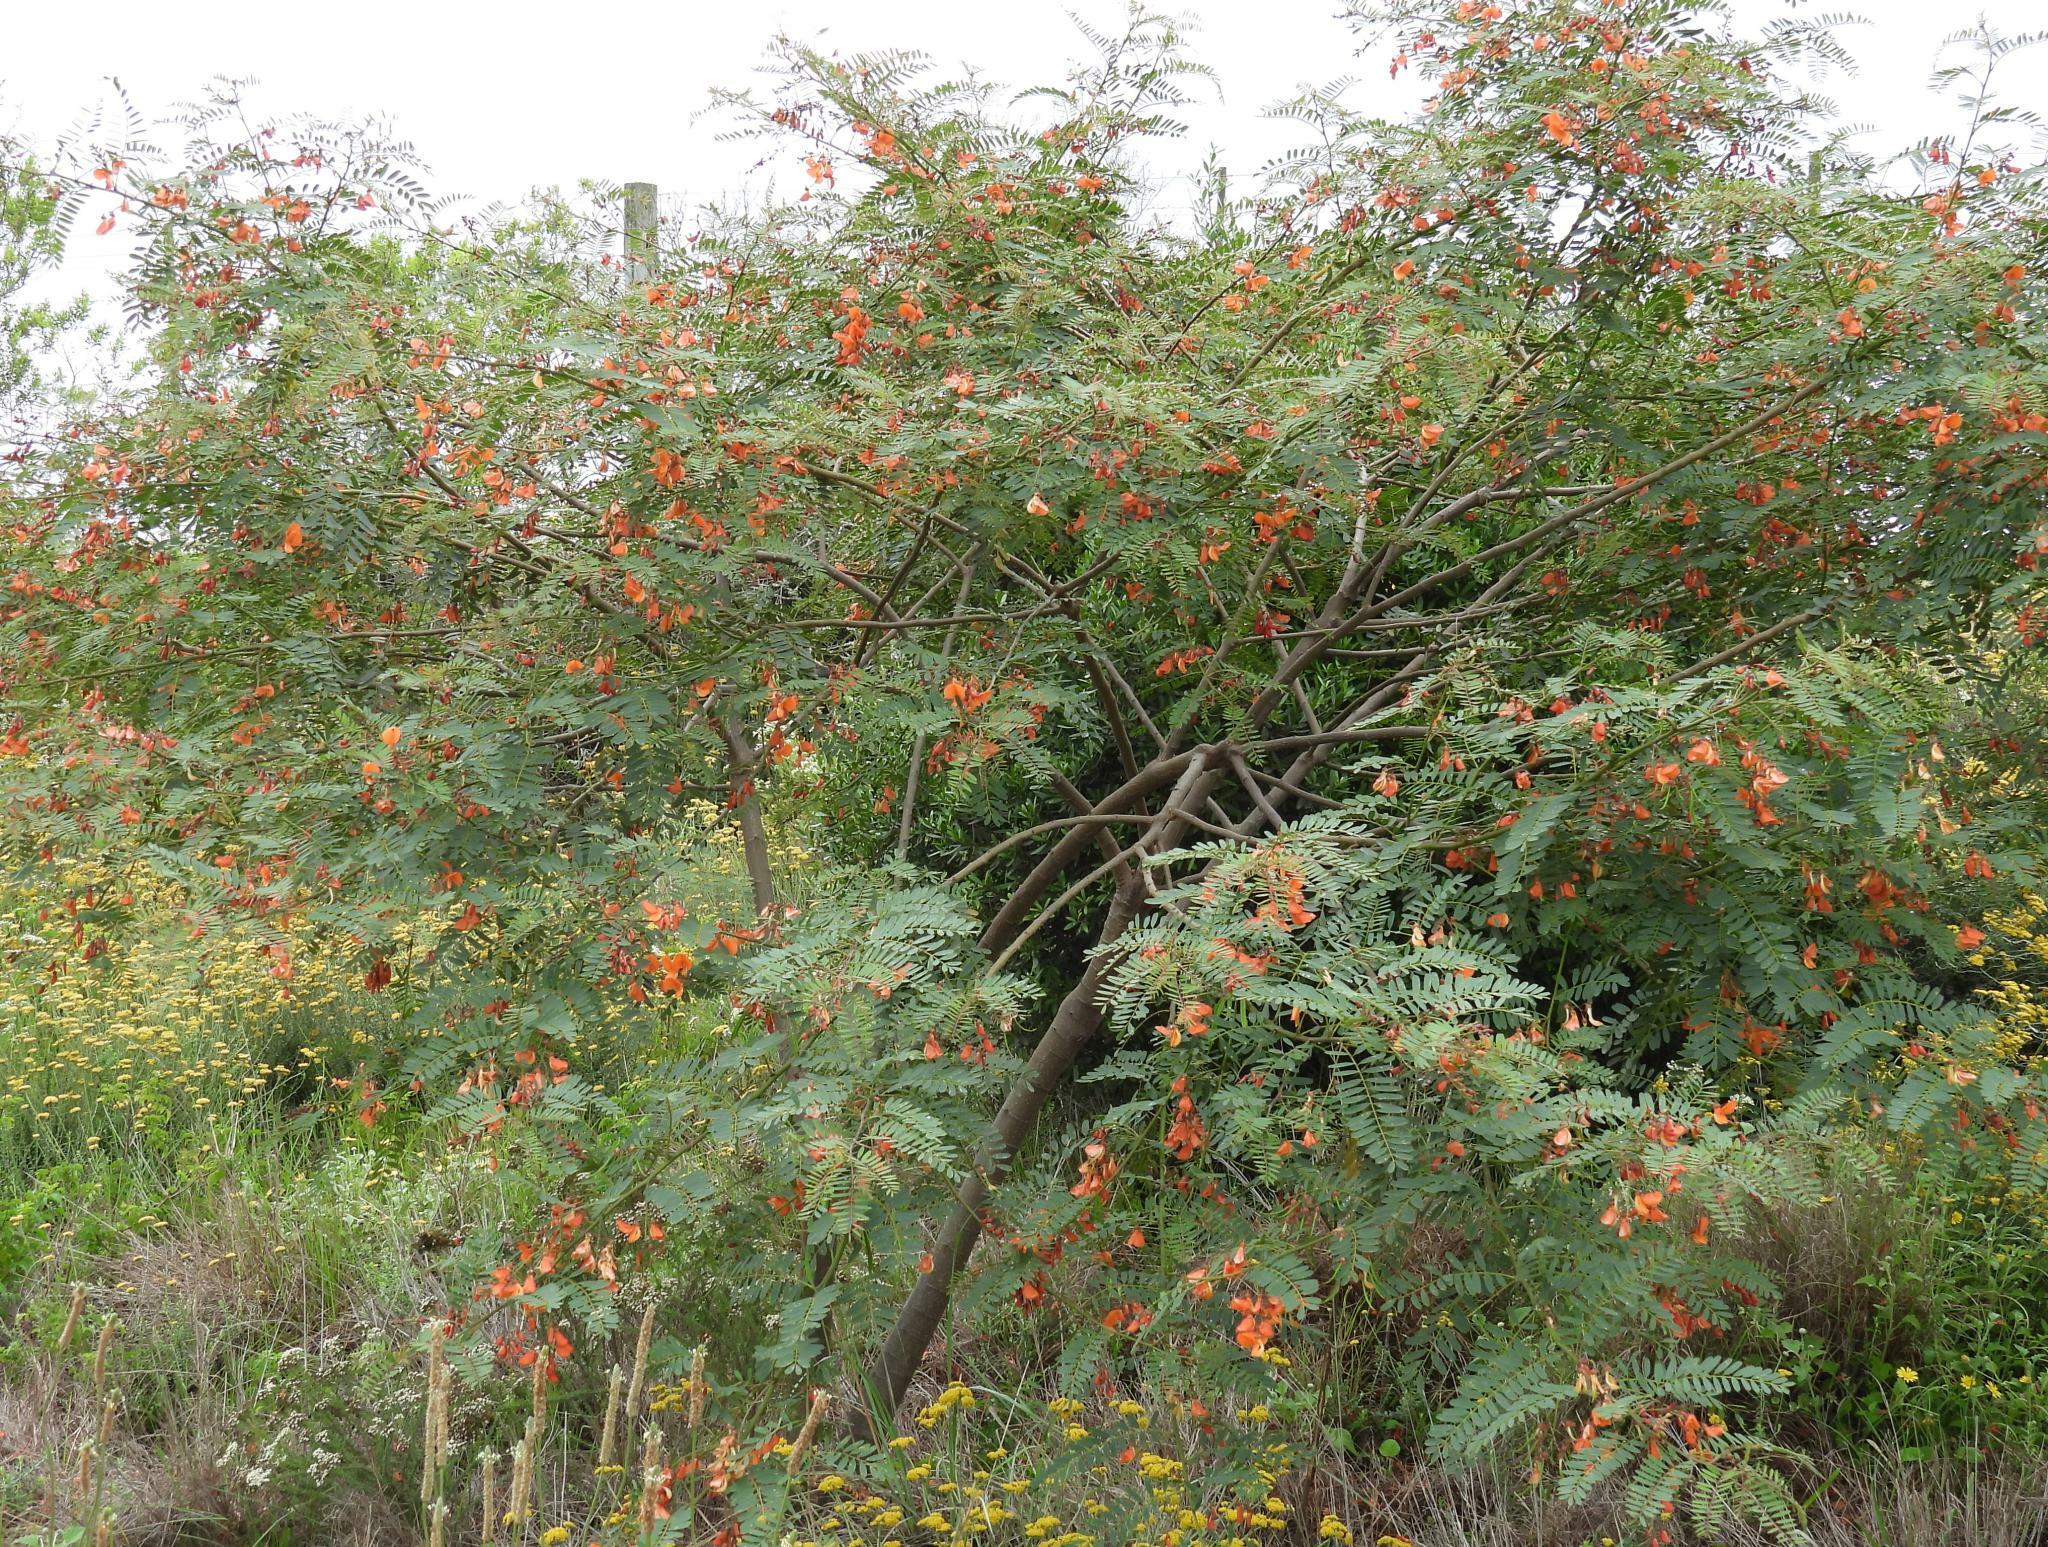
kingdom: Plantae
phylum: Tracheophyta
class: Magnoliopsida
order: Fabales
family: Fabaceae
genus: Sesbania
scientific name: Sesbania punicea
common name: Rattlebox
